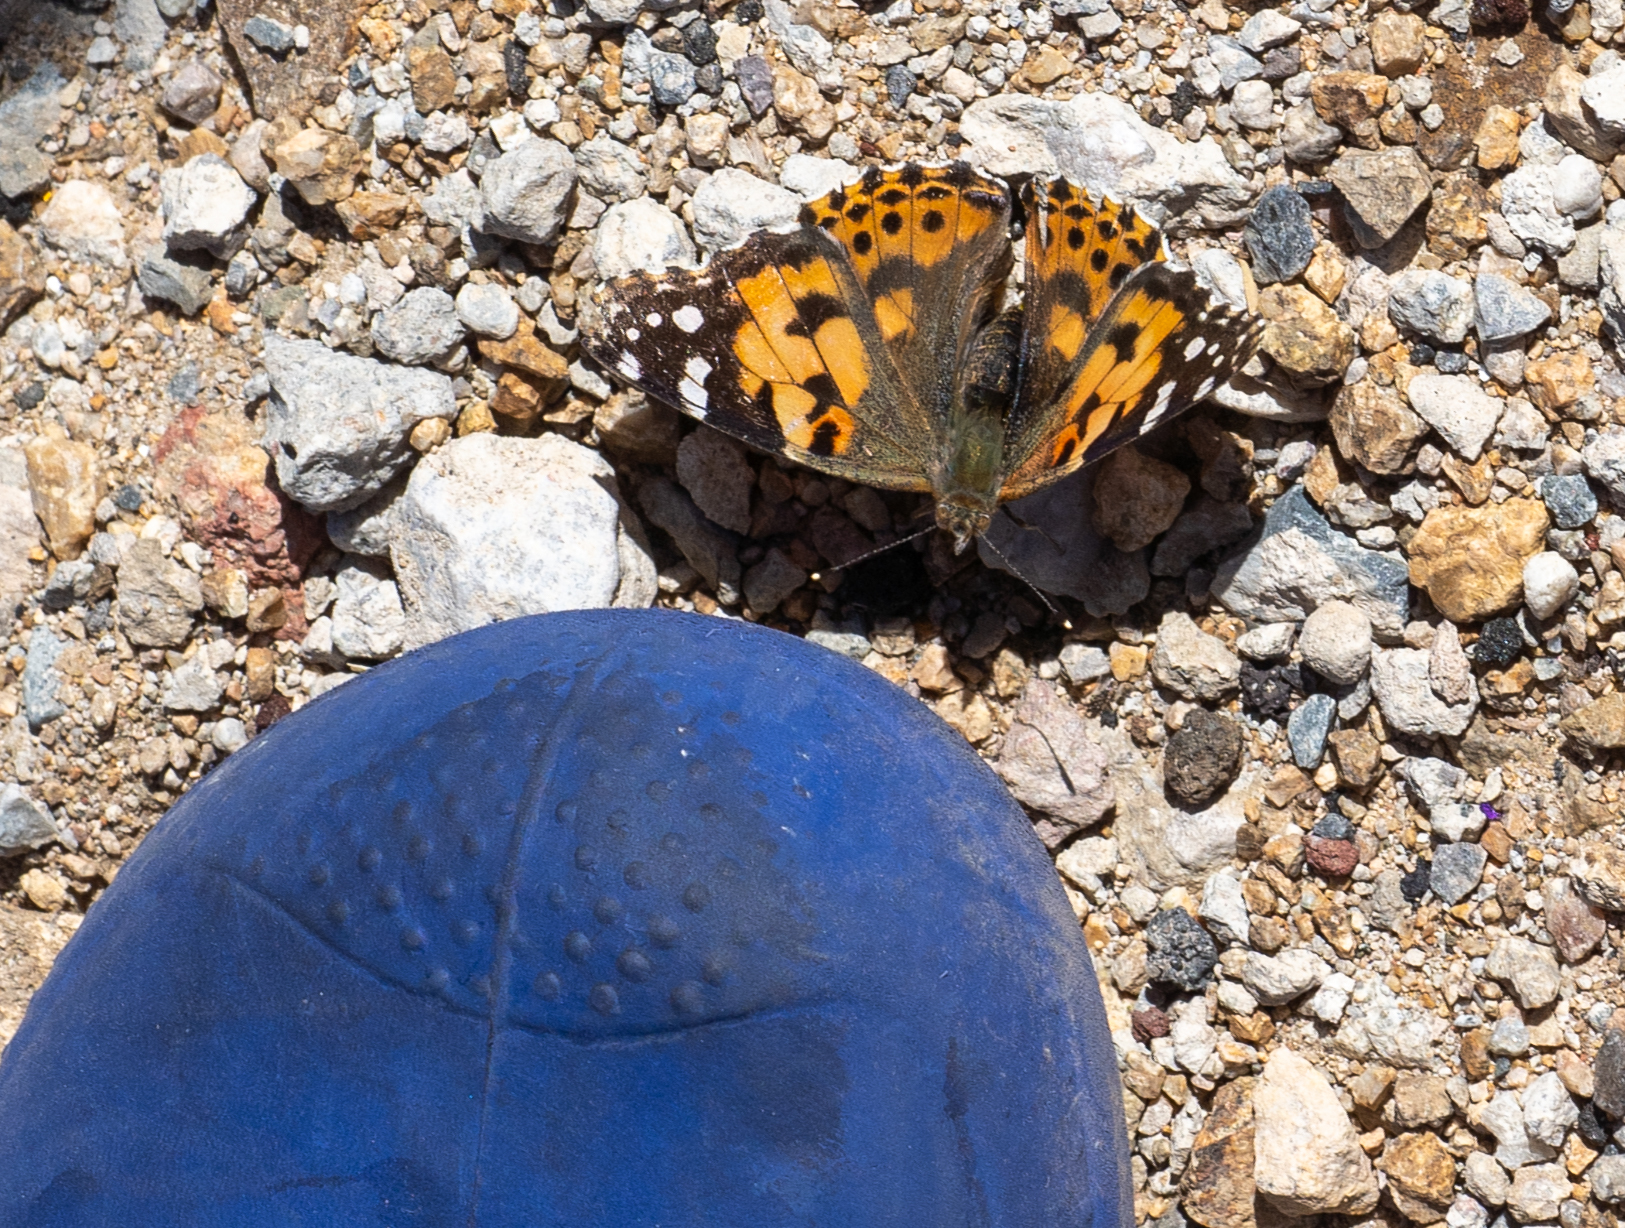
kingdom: Animalia
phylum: Arthropoda
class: Insecta
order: Lepidoptera
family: Nymphalidae
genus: Vanessa
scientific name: Vanessa cardui
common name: Painted lady
